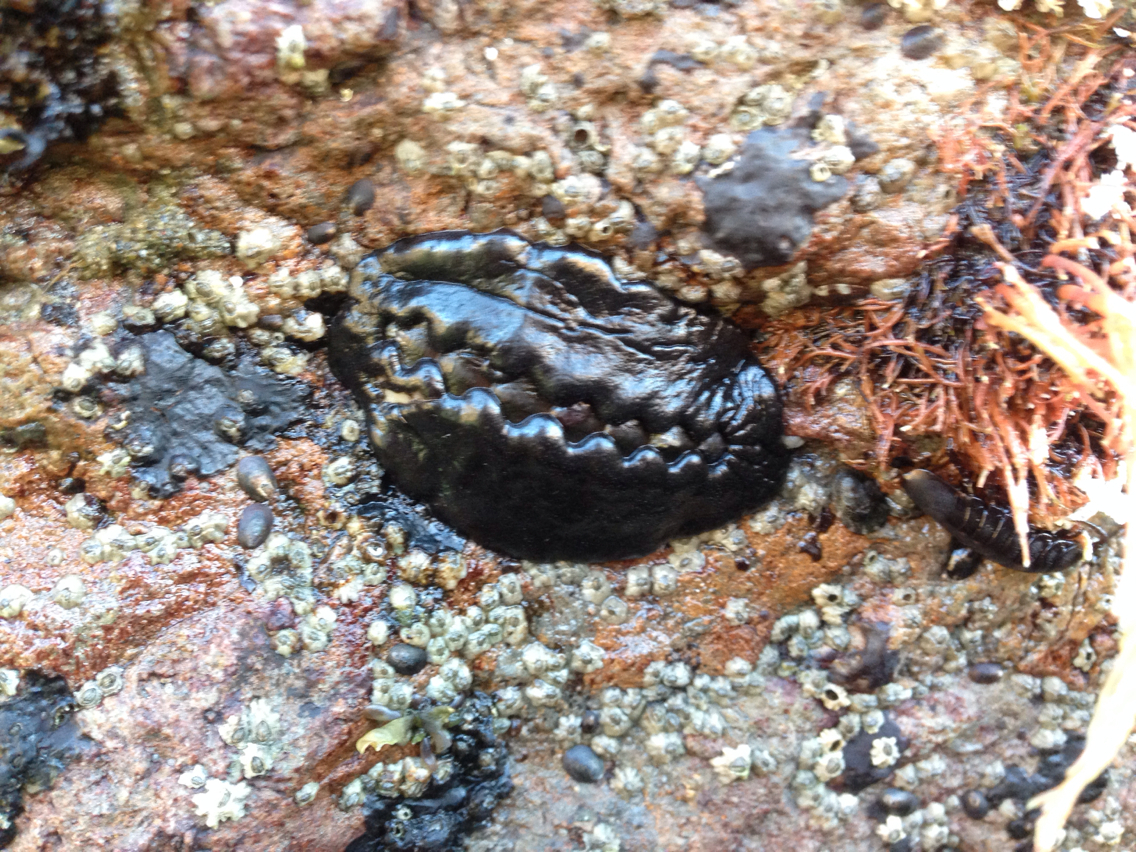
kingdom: Animalia
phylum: Mollusca
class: Polyplacophora
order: Chitonida
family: Mopaliidae
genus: Katharina
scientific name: Katharina tunicata
